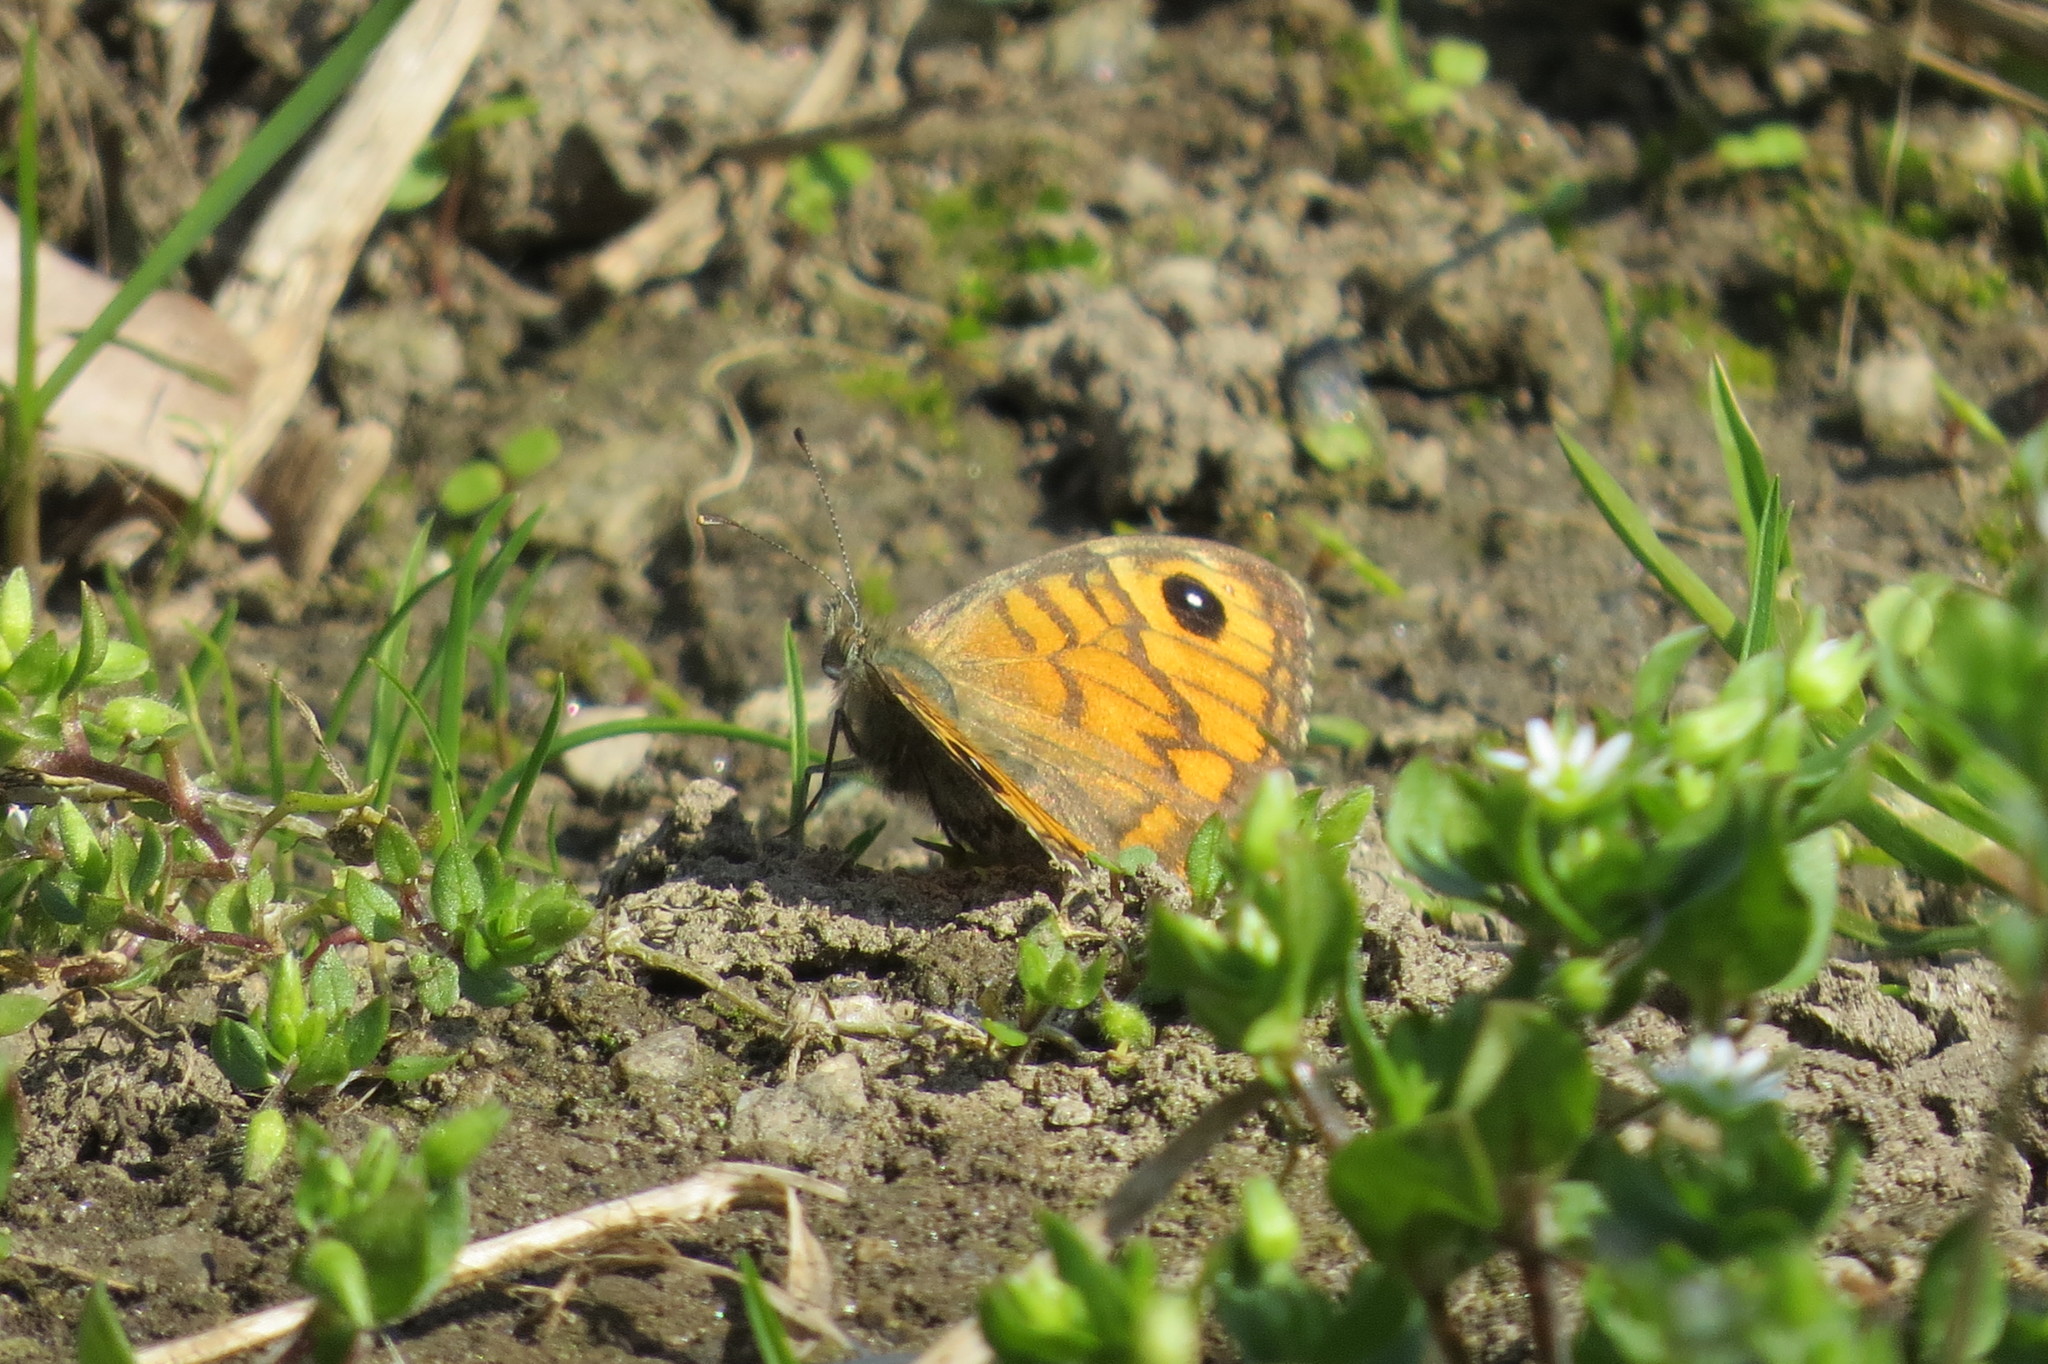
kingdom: Animalia
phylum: Arthropoda
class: Insecta
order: Lepidoptera
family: Nymphalidae
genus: Pararge
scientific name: Pararge Lasiommata megera
